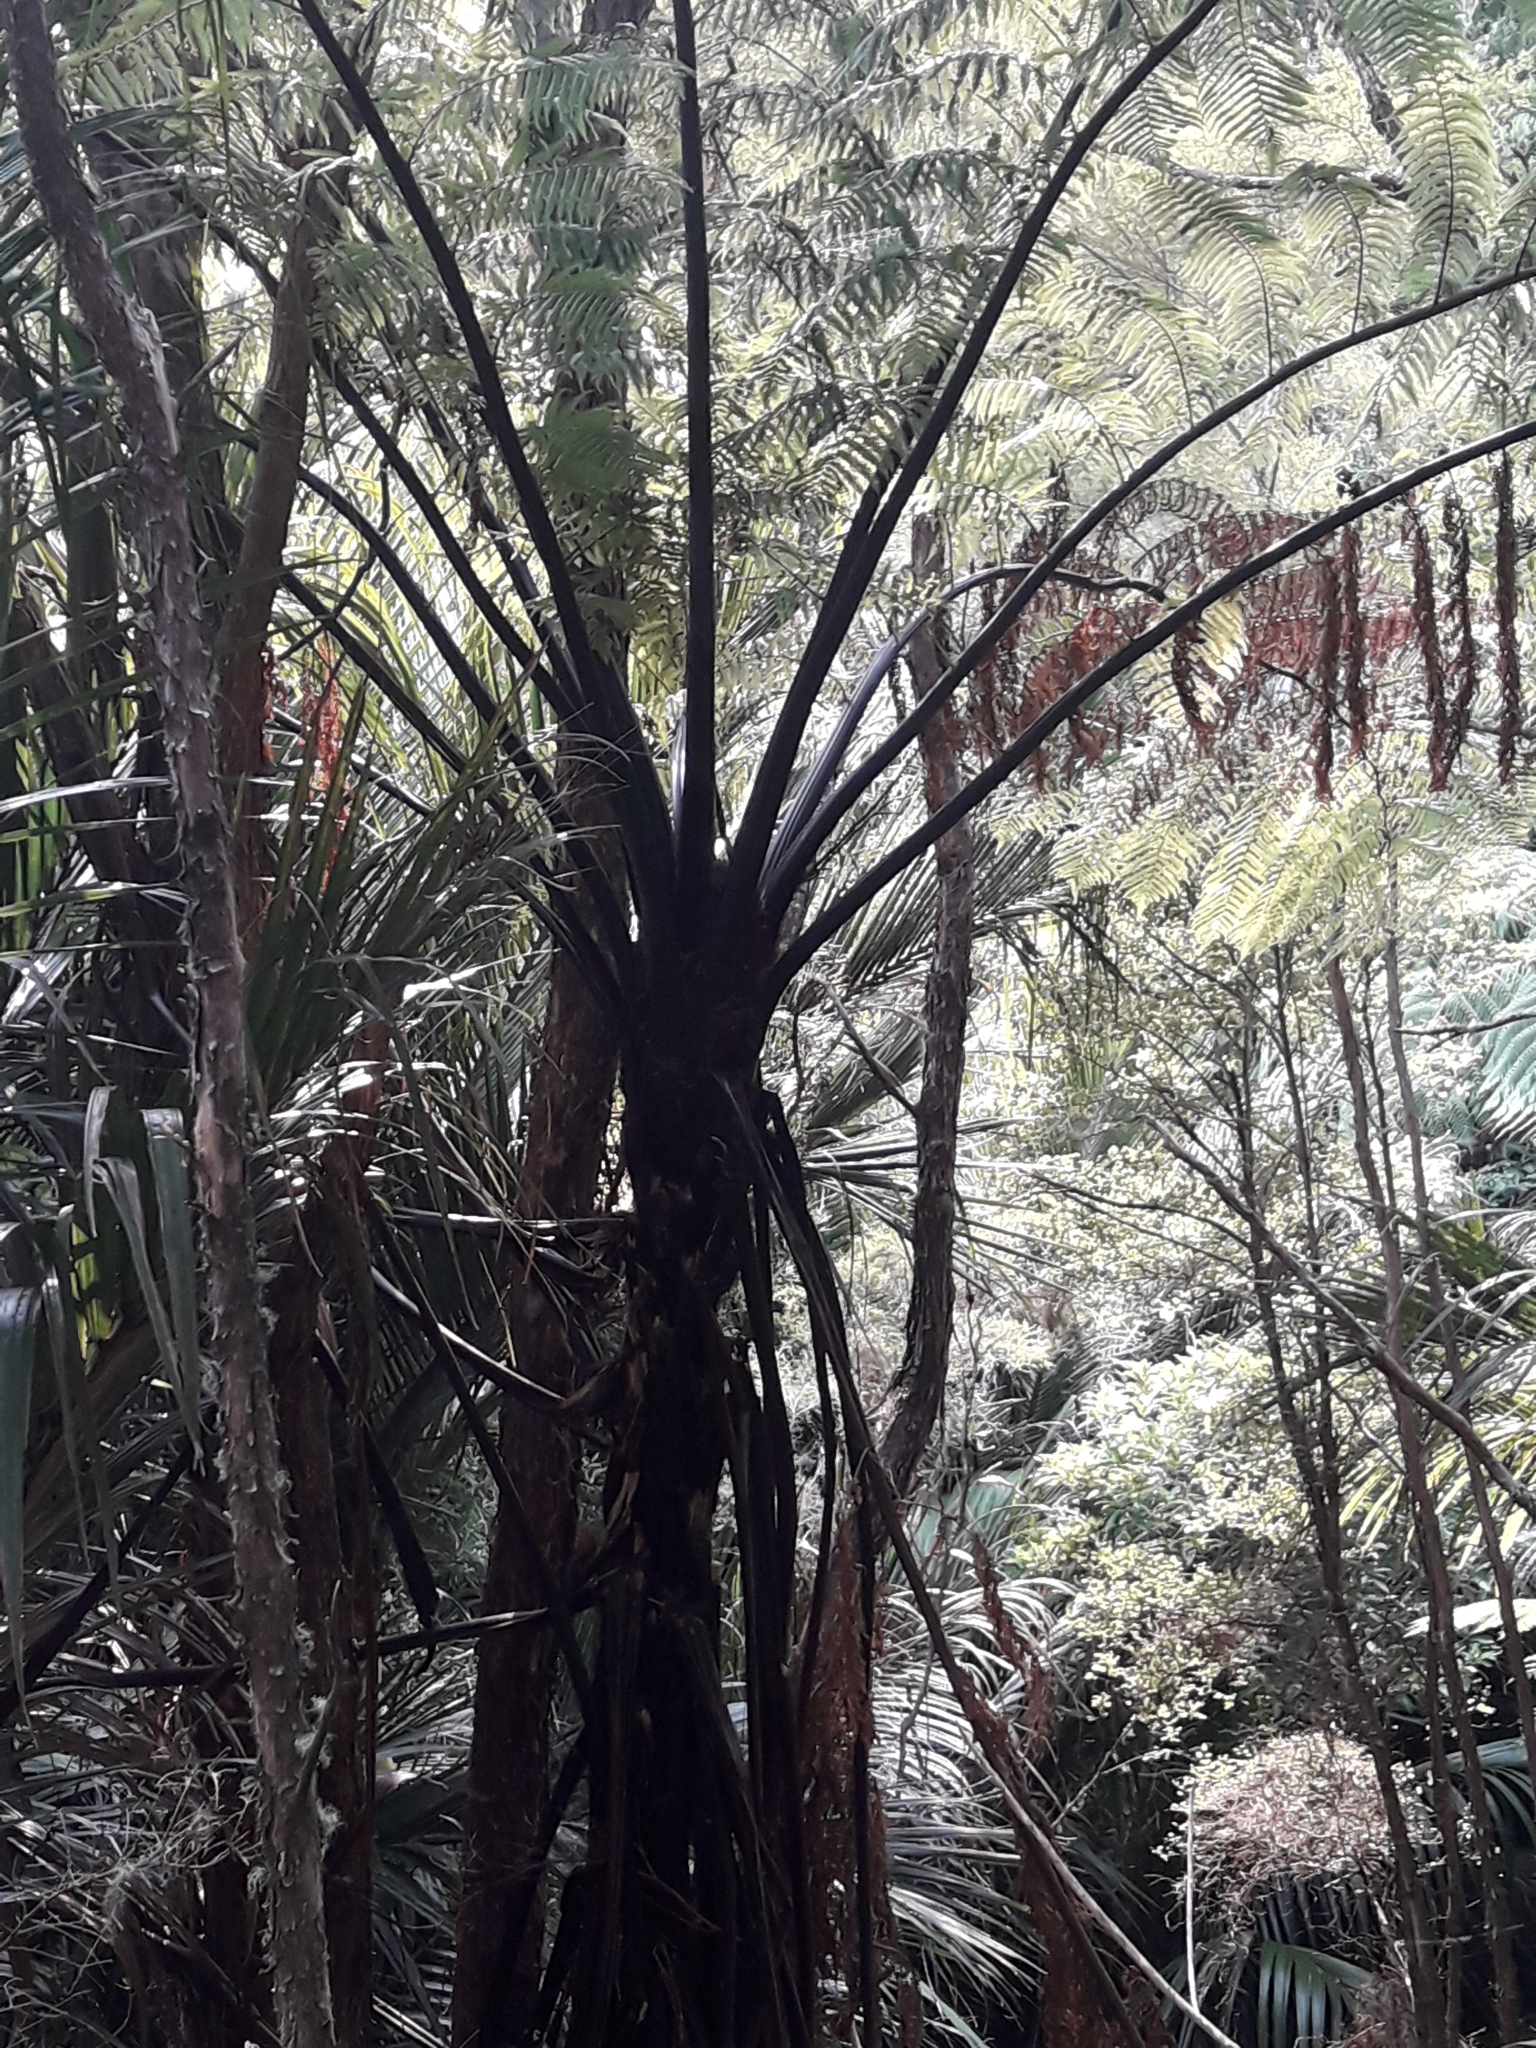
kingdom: Plantae
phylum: Tracheophyta
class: Polypodiopsida
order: Cyatheales
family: Cyatheaceae
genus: Sphaeropteris
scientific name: Sphaeropteris medullaris
